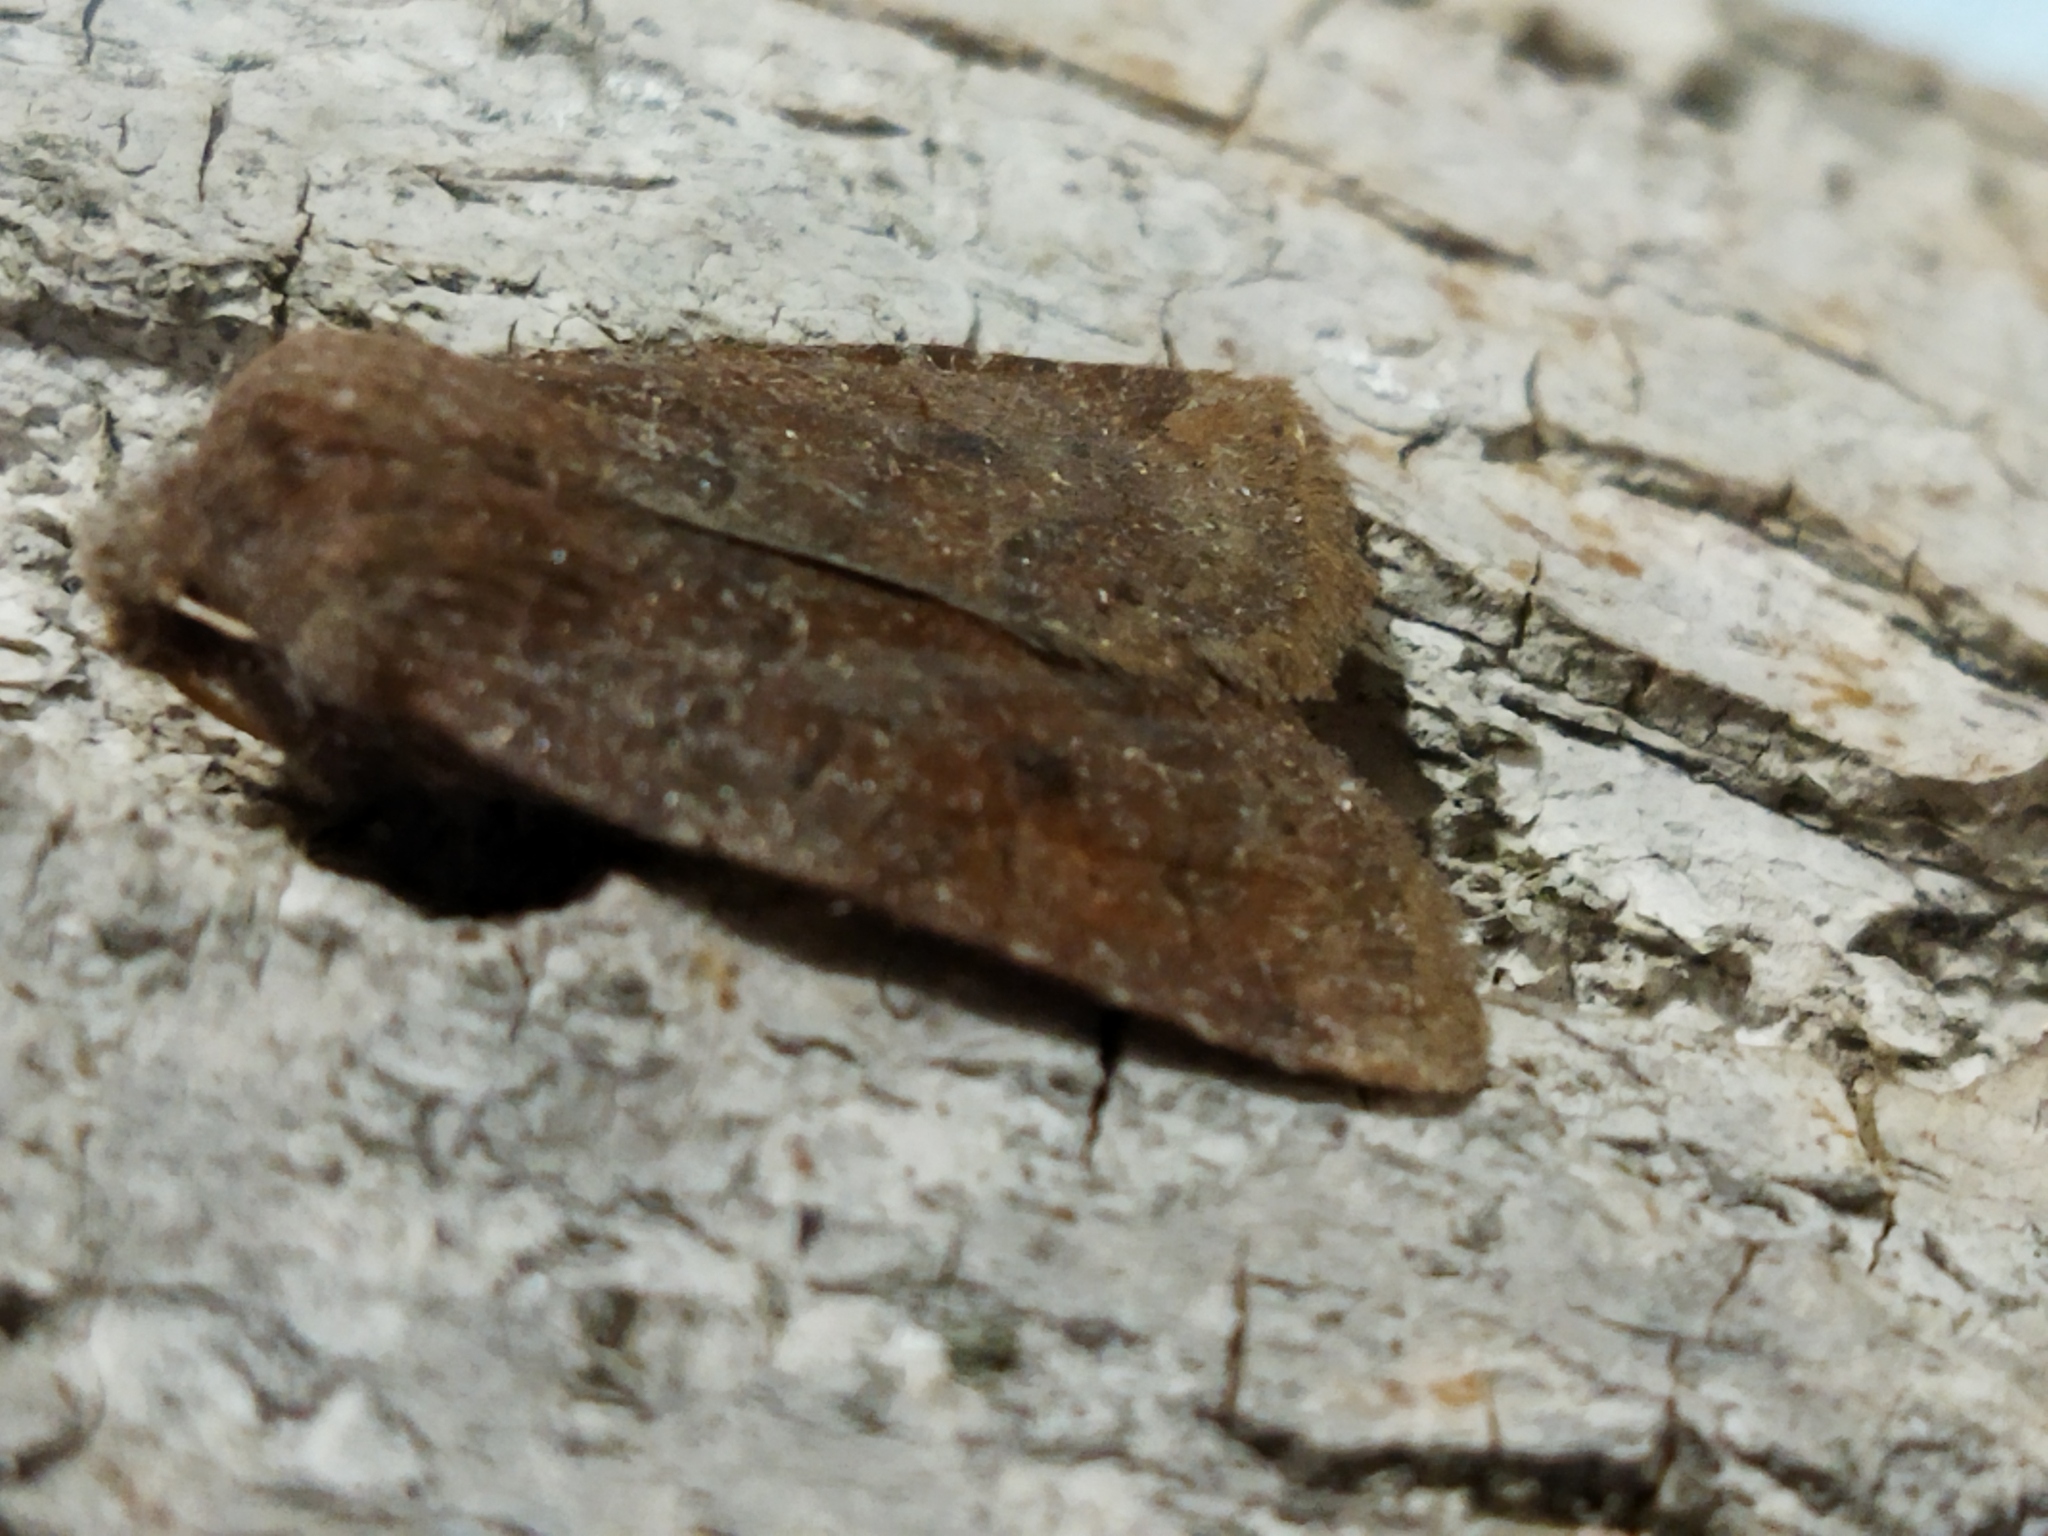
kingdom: Animalia
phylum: Arthropoda
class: Insecta
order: Lepidoptera
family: Noctuidae
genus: Conistra
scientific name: Conistra vaccinii
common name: Chestnut
